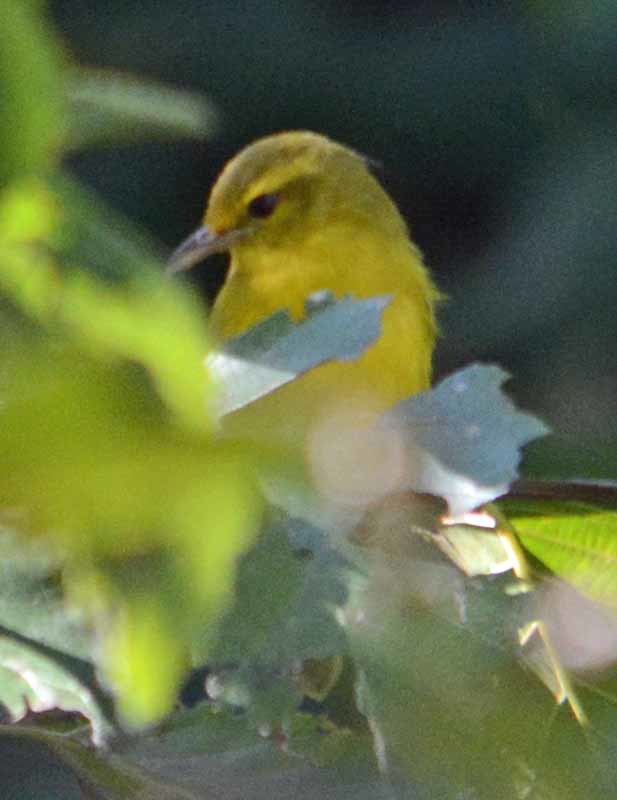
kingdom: Animalia
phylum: Chordata
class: Aves
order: Passeriformes
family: Vireonidae
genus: Vireo
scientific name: Vireo hypochryseus
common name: Golden vireo
